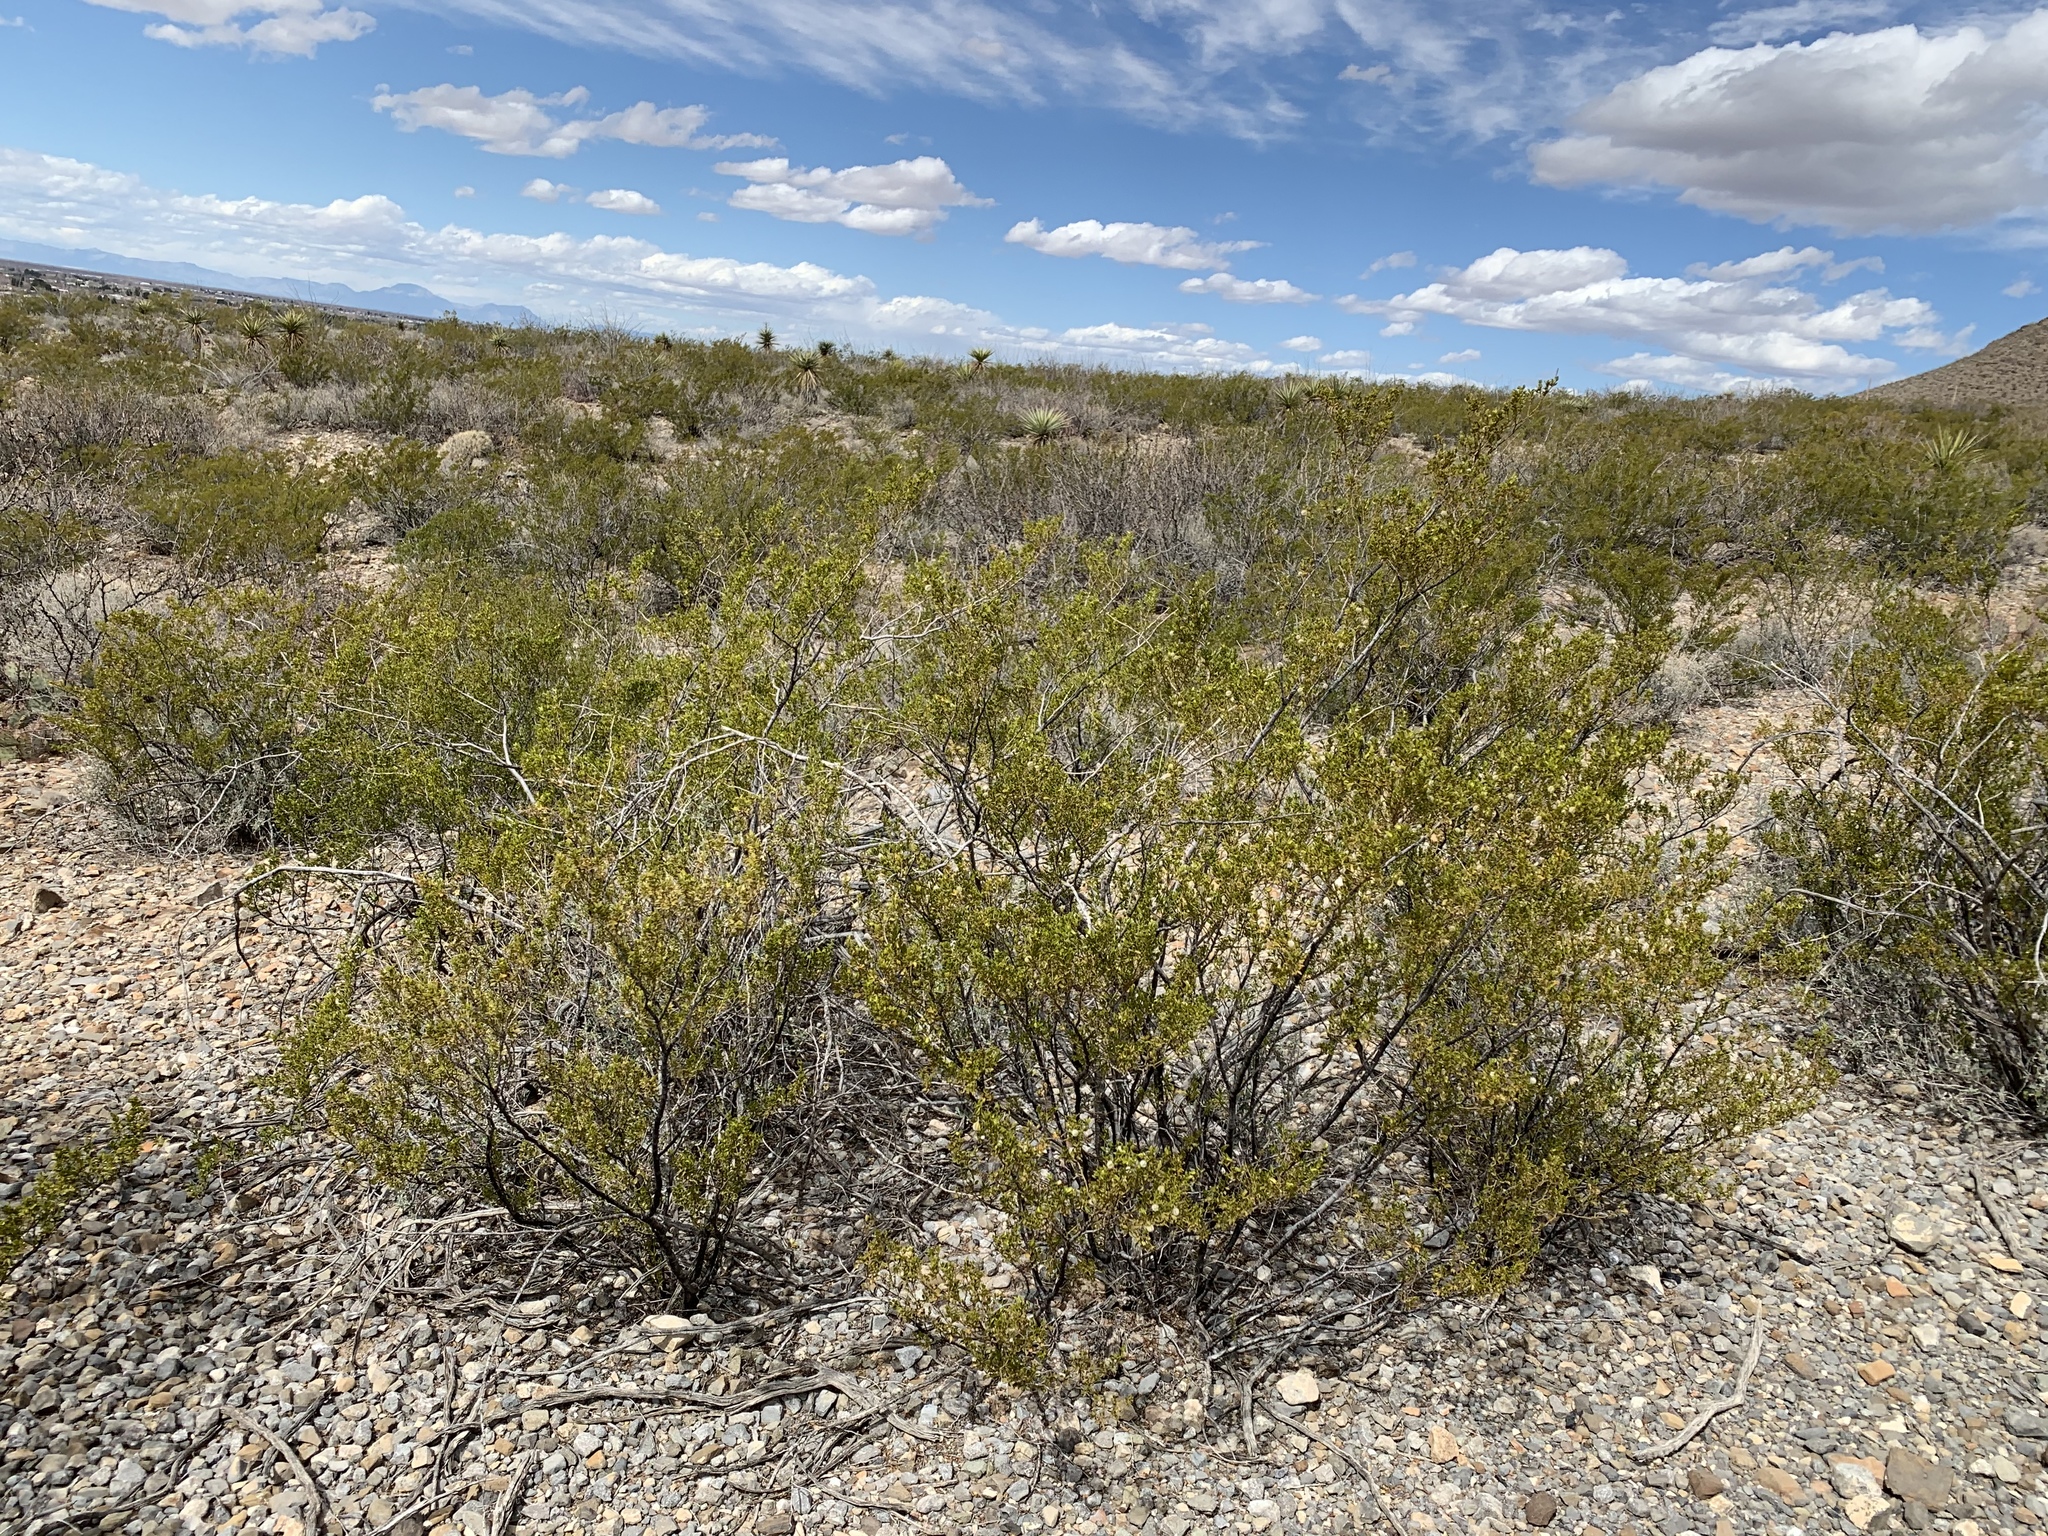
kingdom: Plantae
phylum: Tracheophyta
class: Magnoliopsida
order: Zygophyllales
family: Zygophyllaceae
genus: Larrea
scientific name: Larrea tridentata
